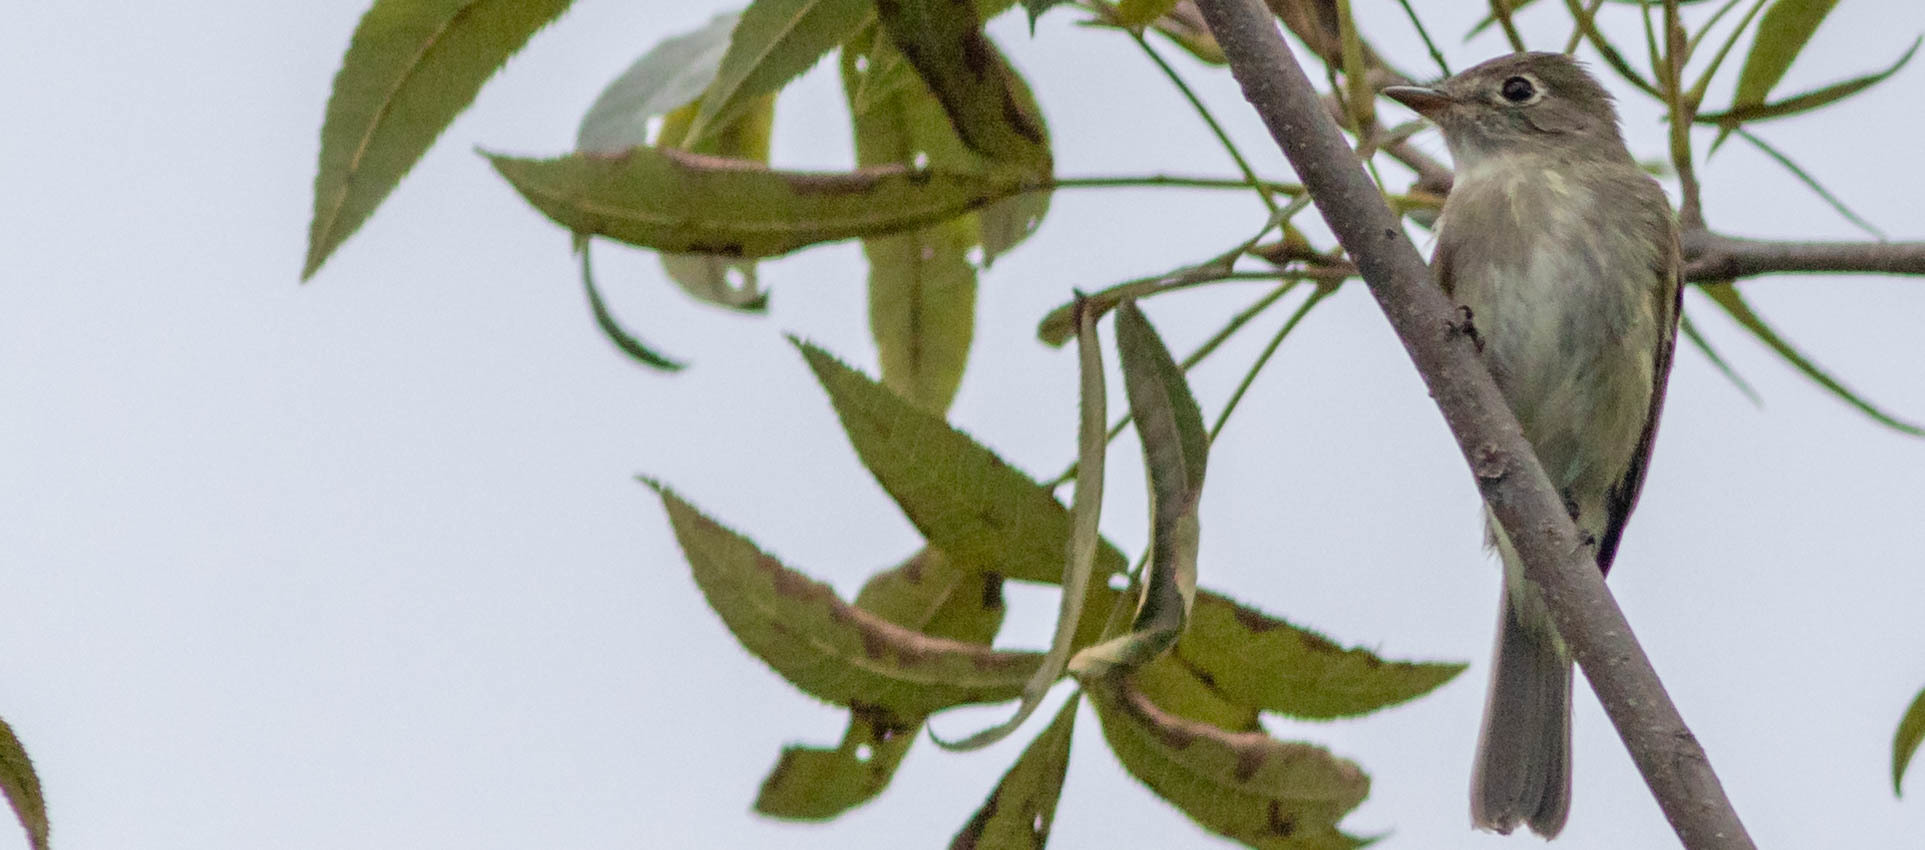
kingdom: Animalia
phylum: Chordata
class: Aves
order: Passeriformes
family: Tyrannidae
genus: Empidonax
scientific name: Empidonax minimus
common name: Least flycatcher
